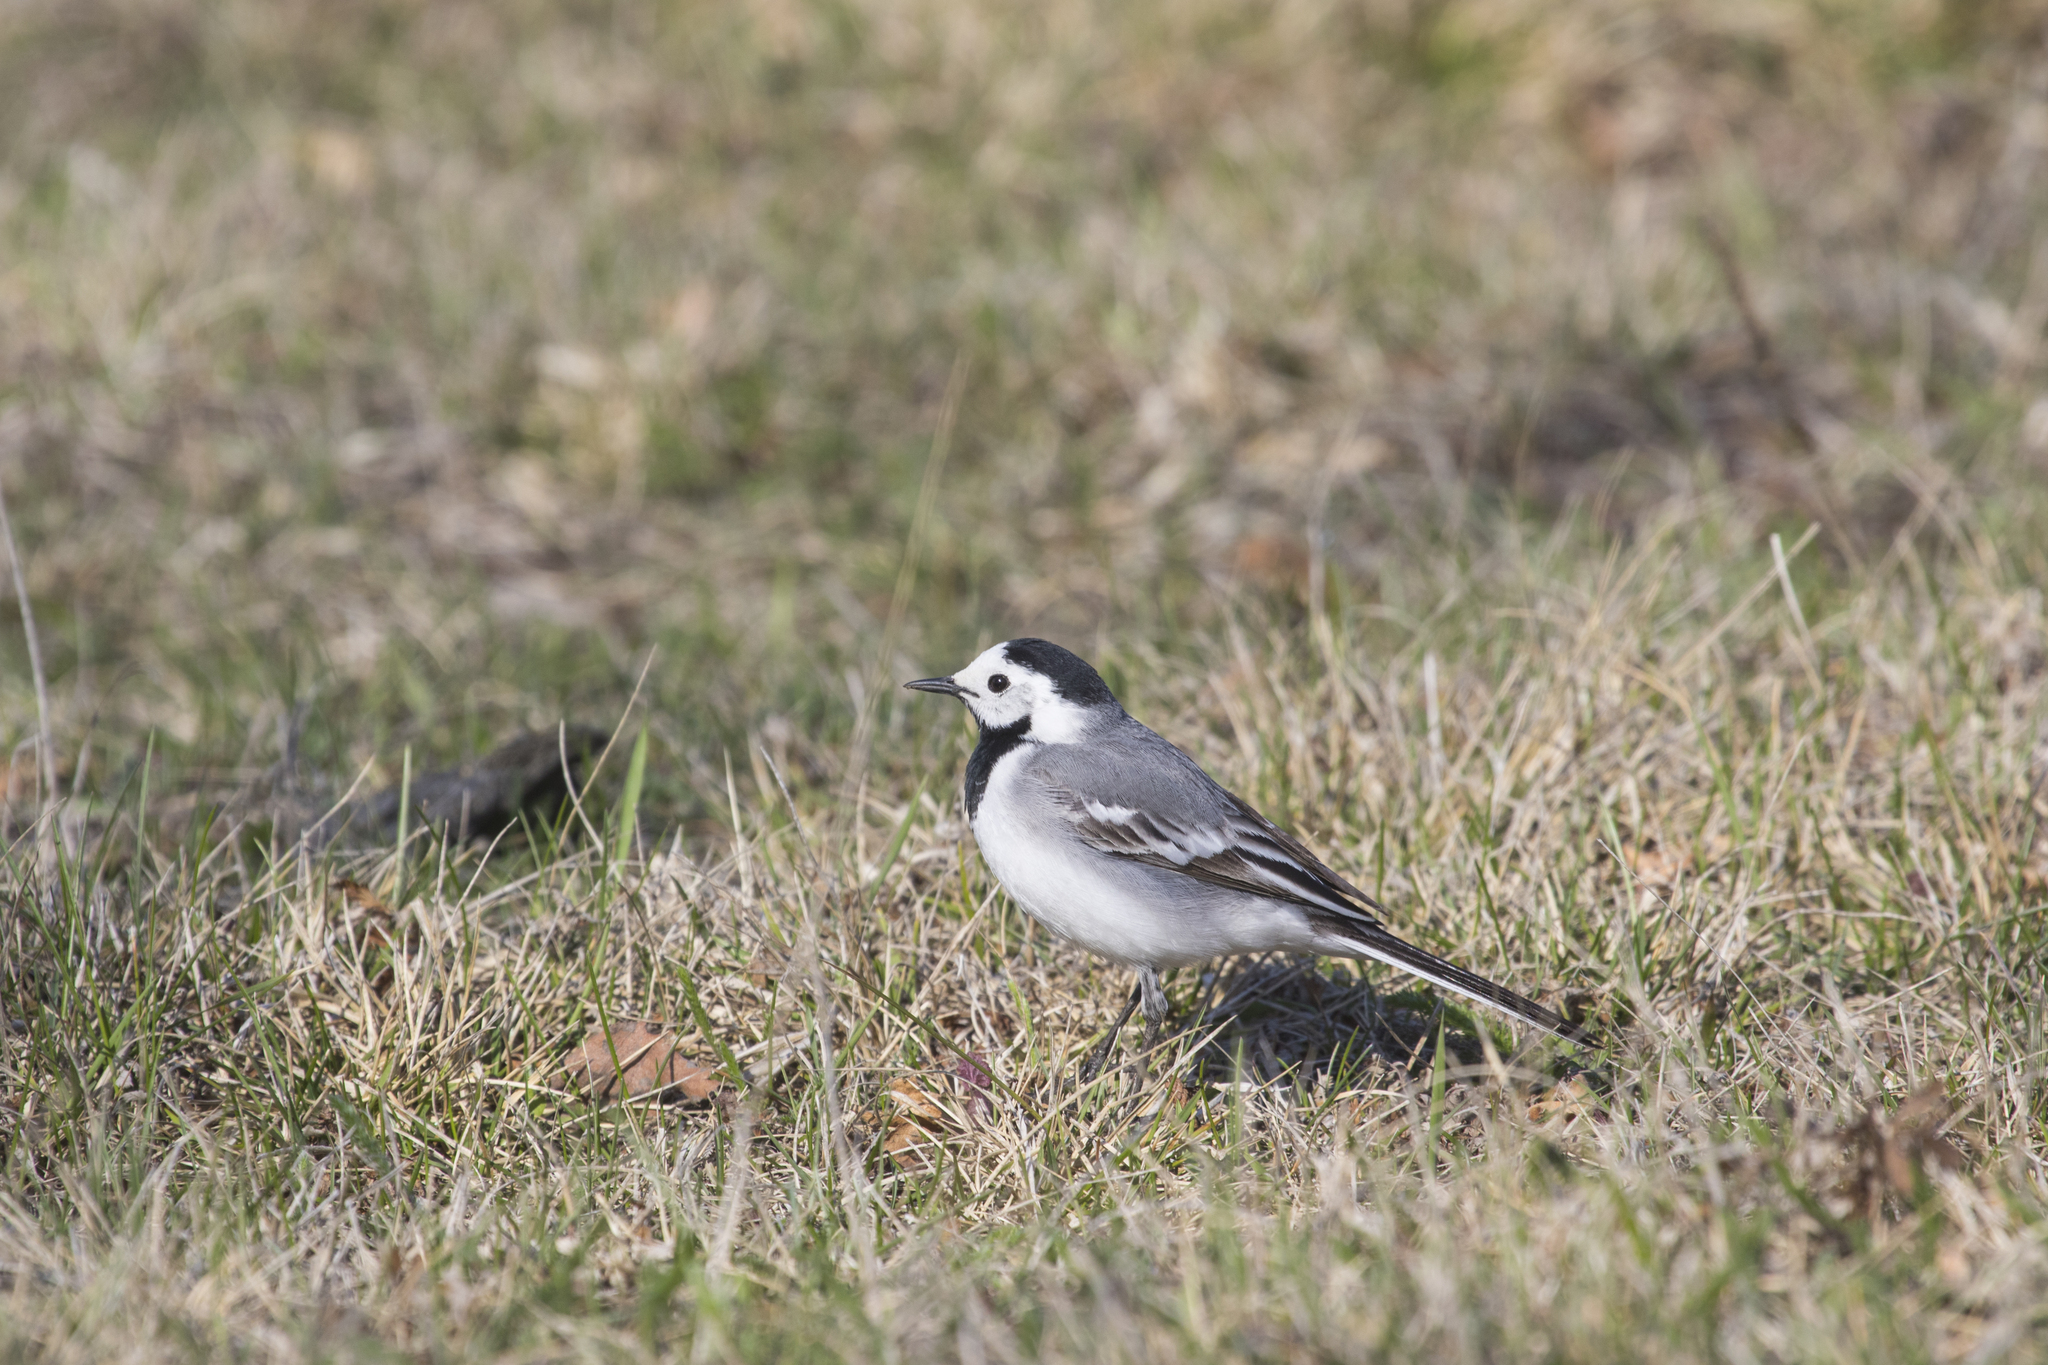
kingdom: Animalia
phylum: Chordata
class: Aves
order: Passeriformes
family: Motacillidae
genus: Motacilla
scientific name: Motacilla alba
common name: White wagtail
